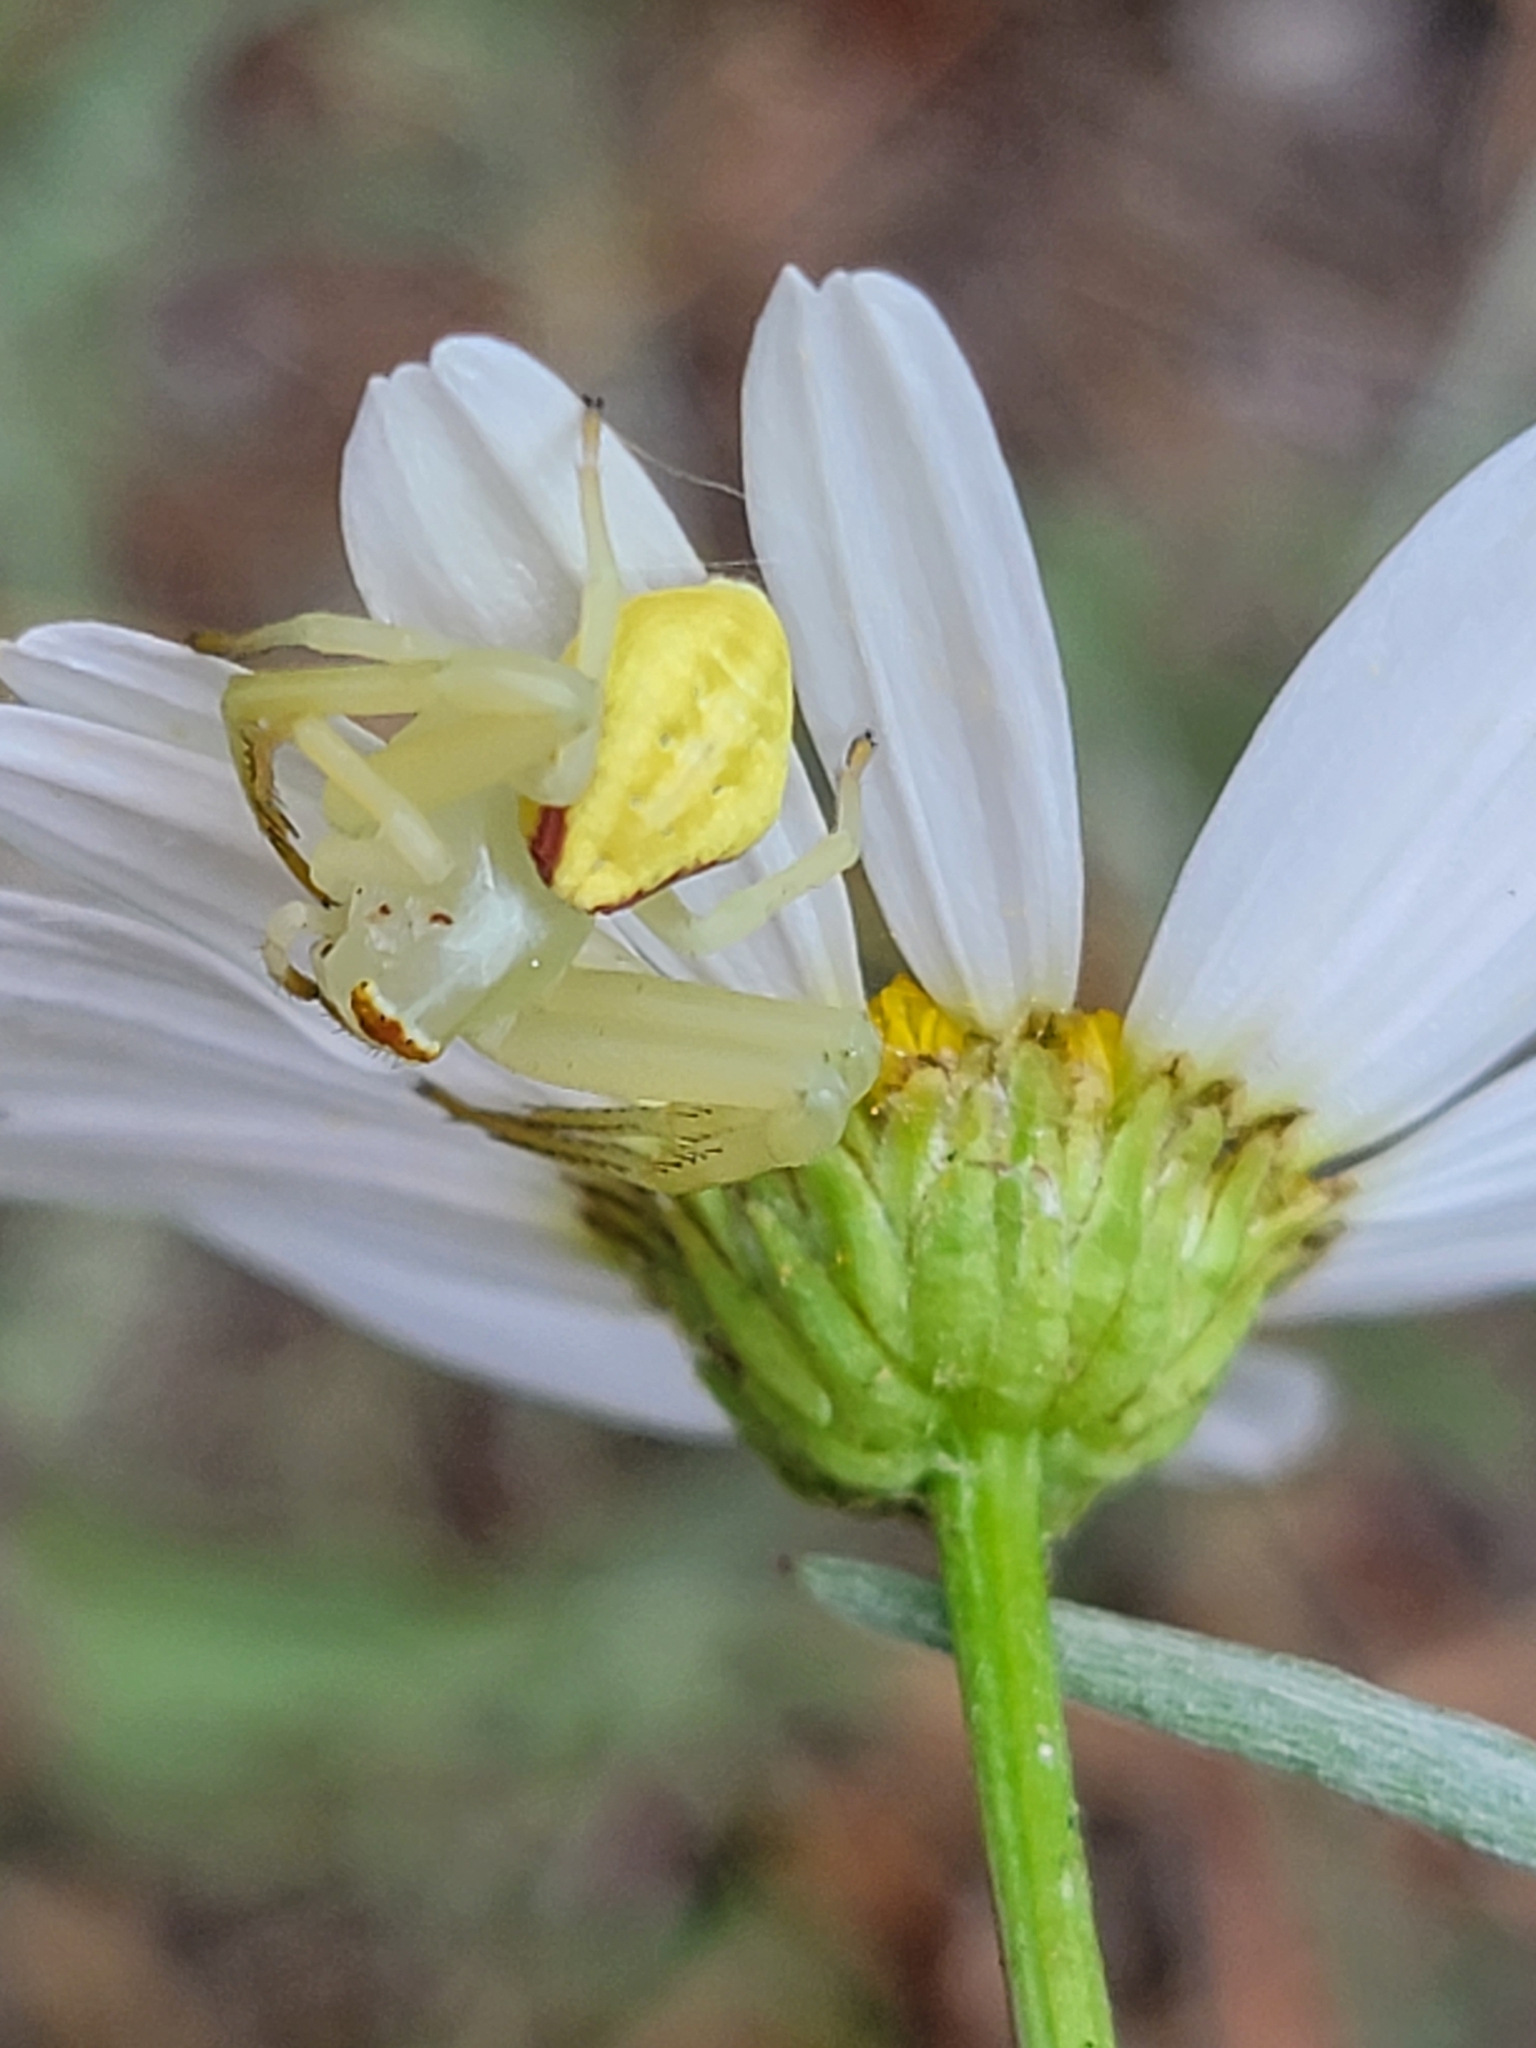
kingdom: Animalia
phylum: Arthropoda
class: Arachnida
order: Araneae
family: Thomisidae
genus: Misumena
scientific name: Misumena vatia
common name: Goldenrod crab spider
